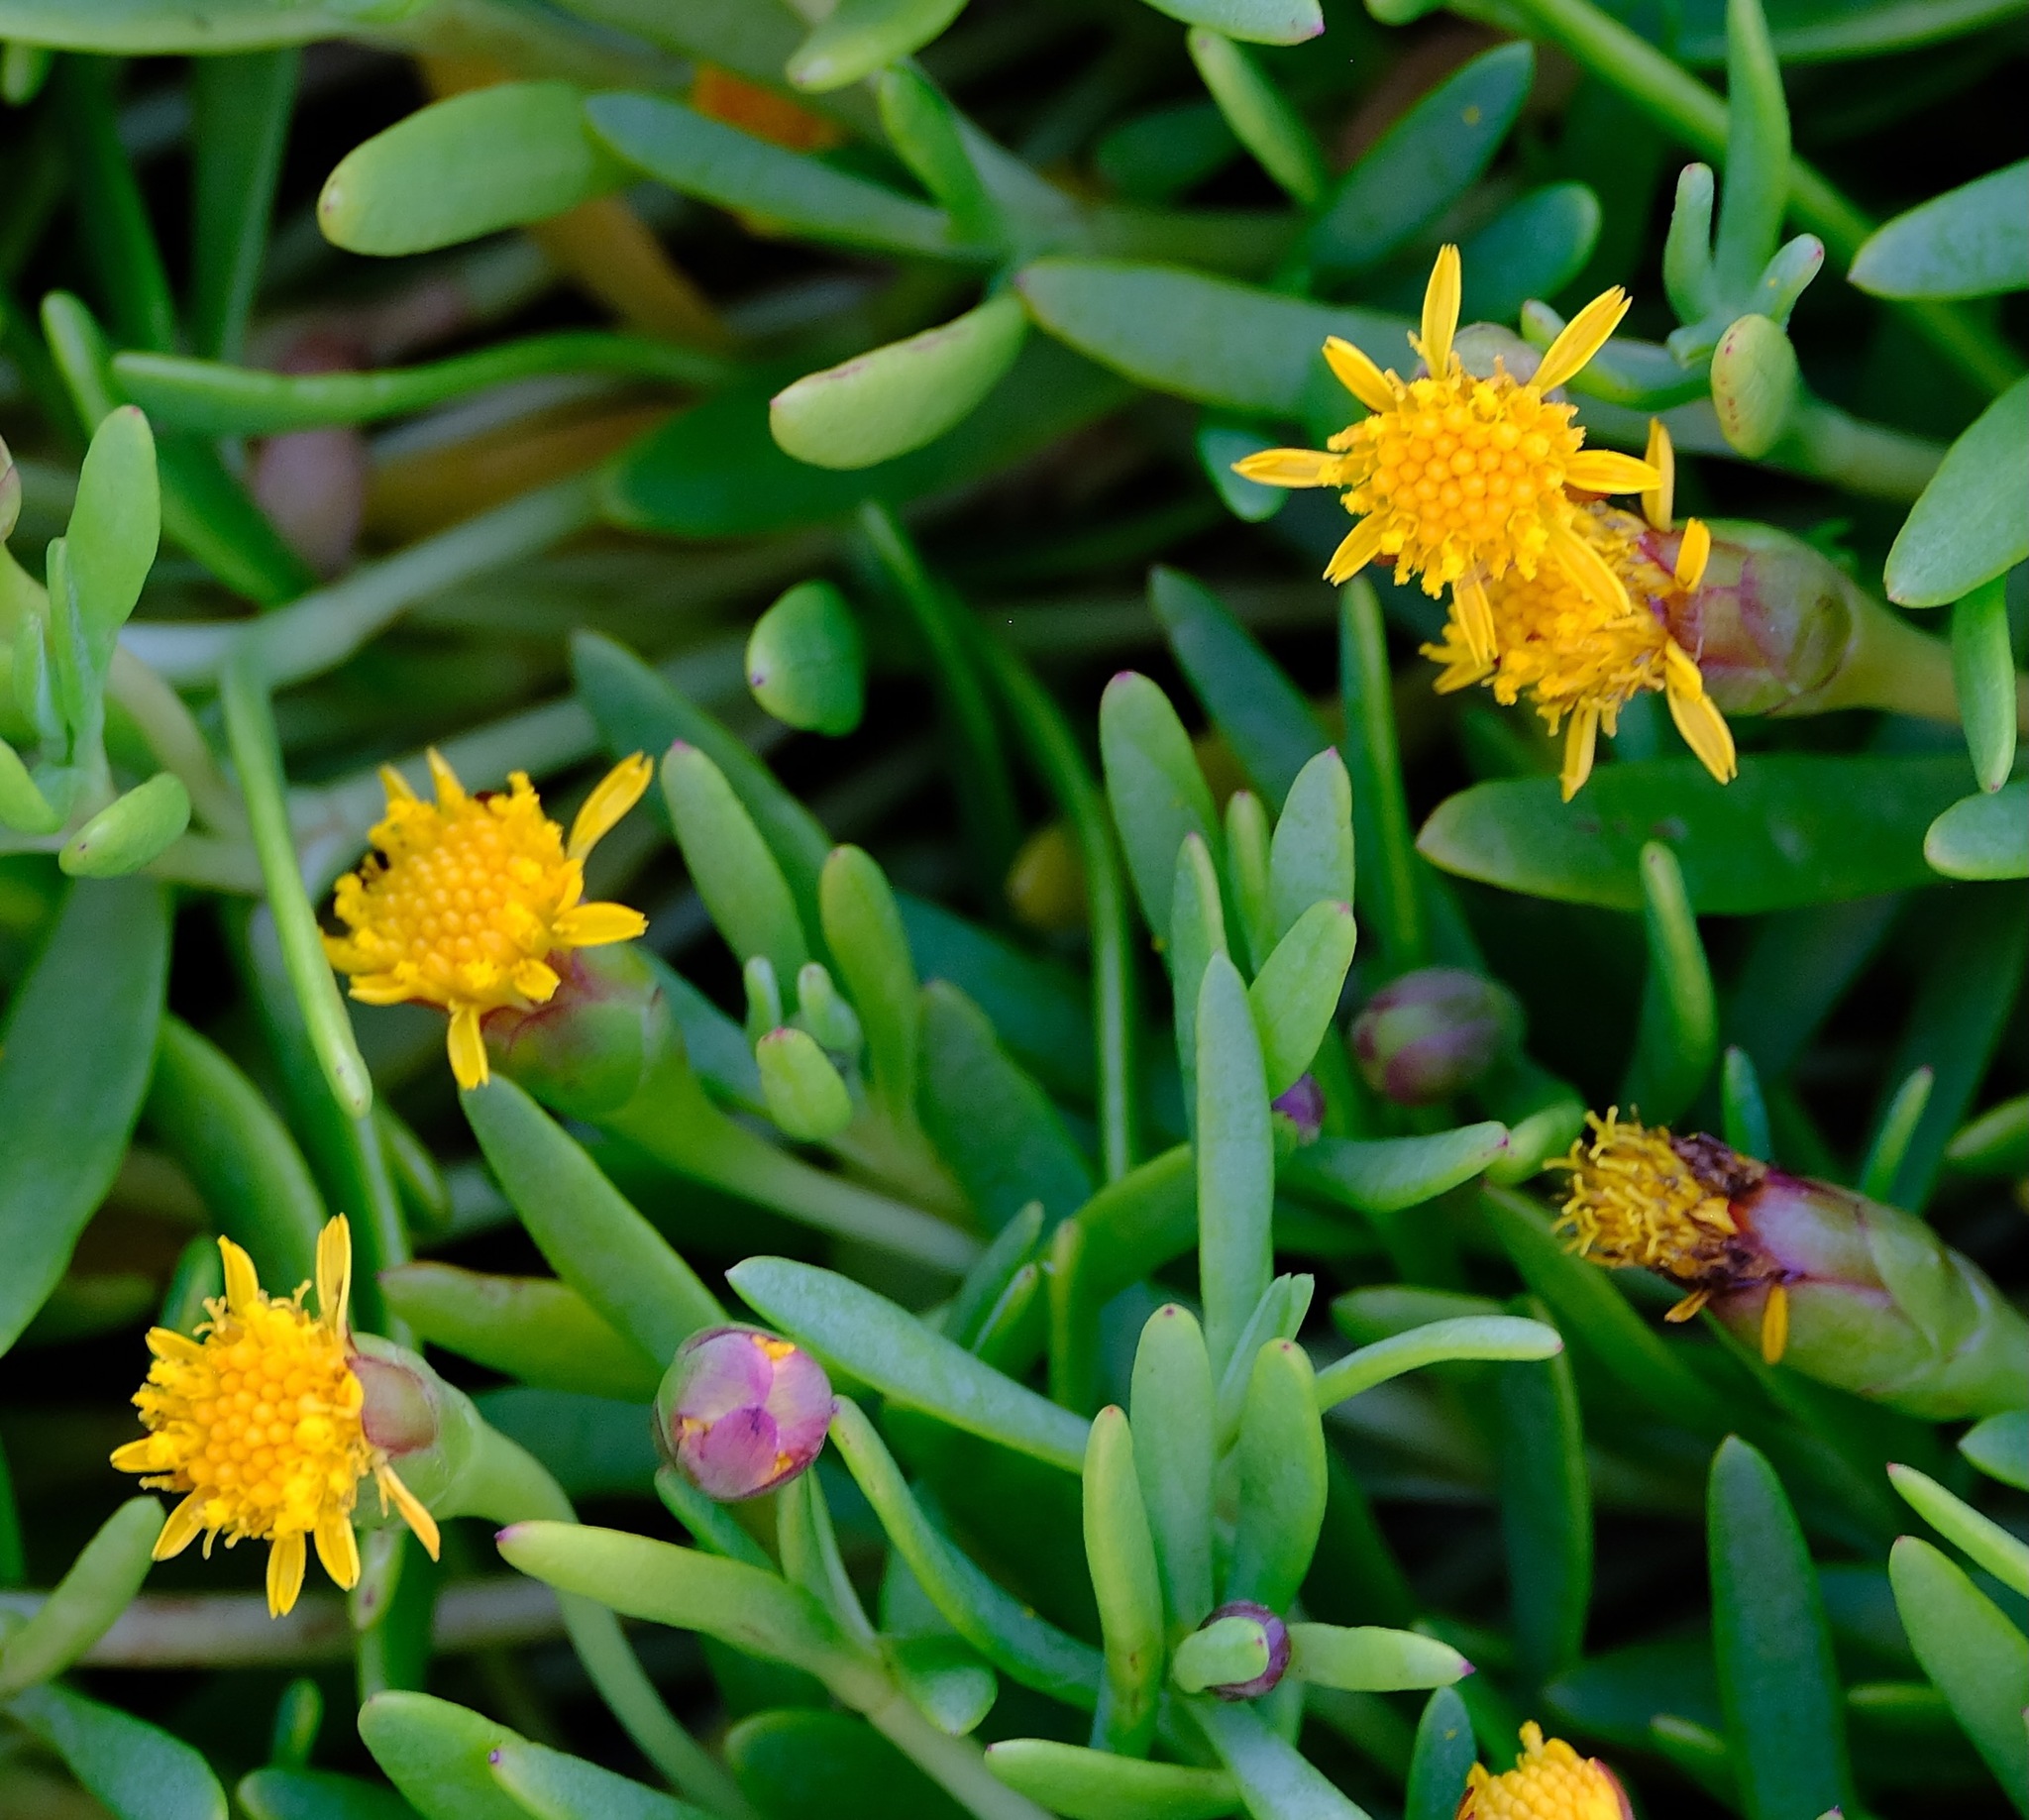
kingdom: Plantae
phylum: Tracheophyta
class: Magnoliopsida
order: Asterales
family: Asteraceae
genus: Jaumea
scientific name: Jaumea carnosa
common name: Fleshy jaumea
